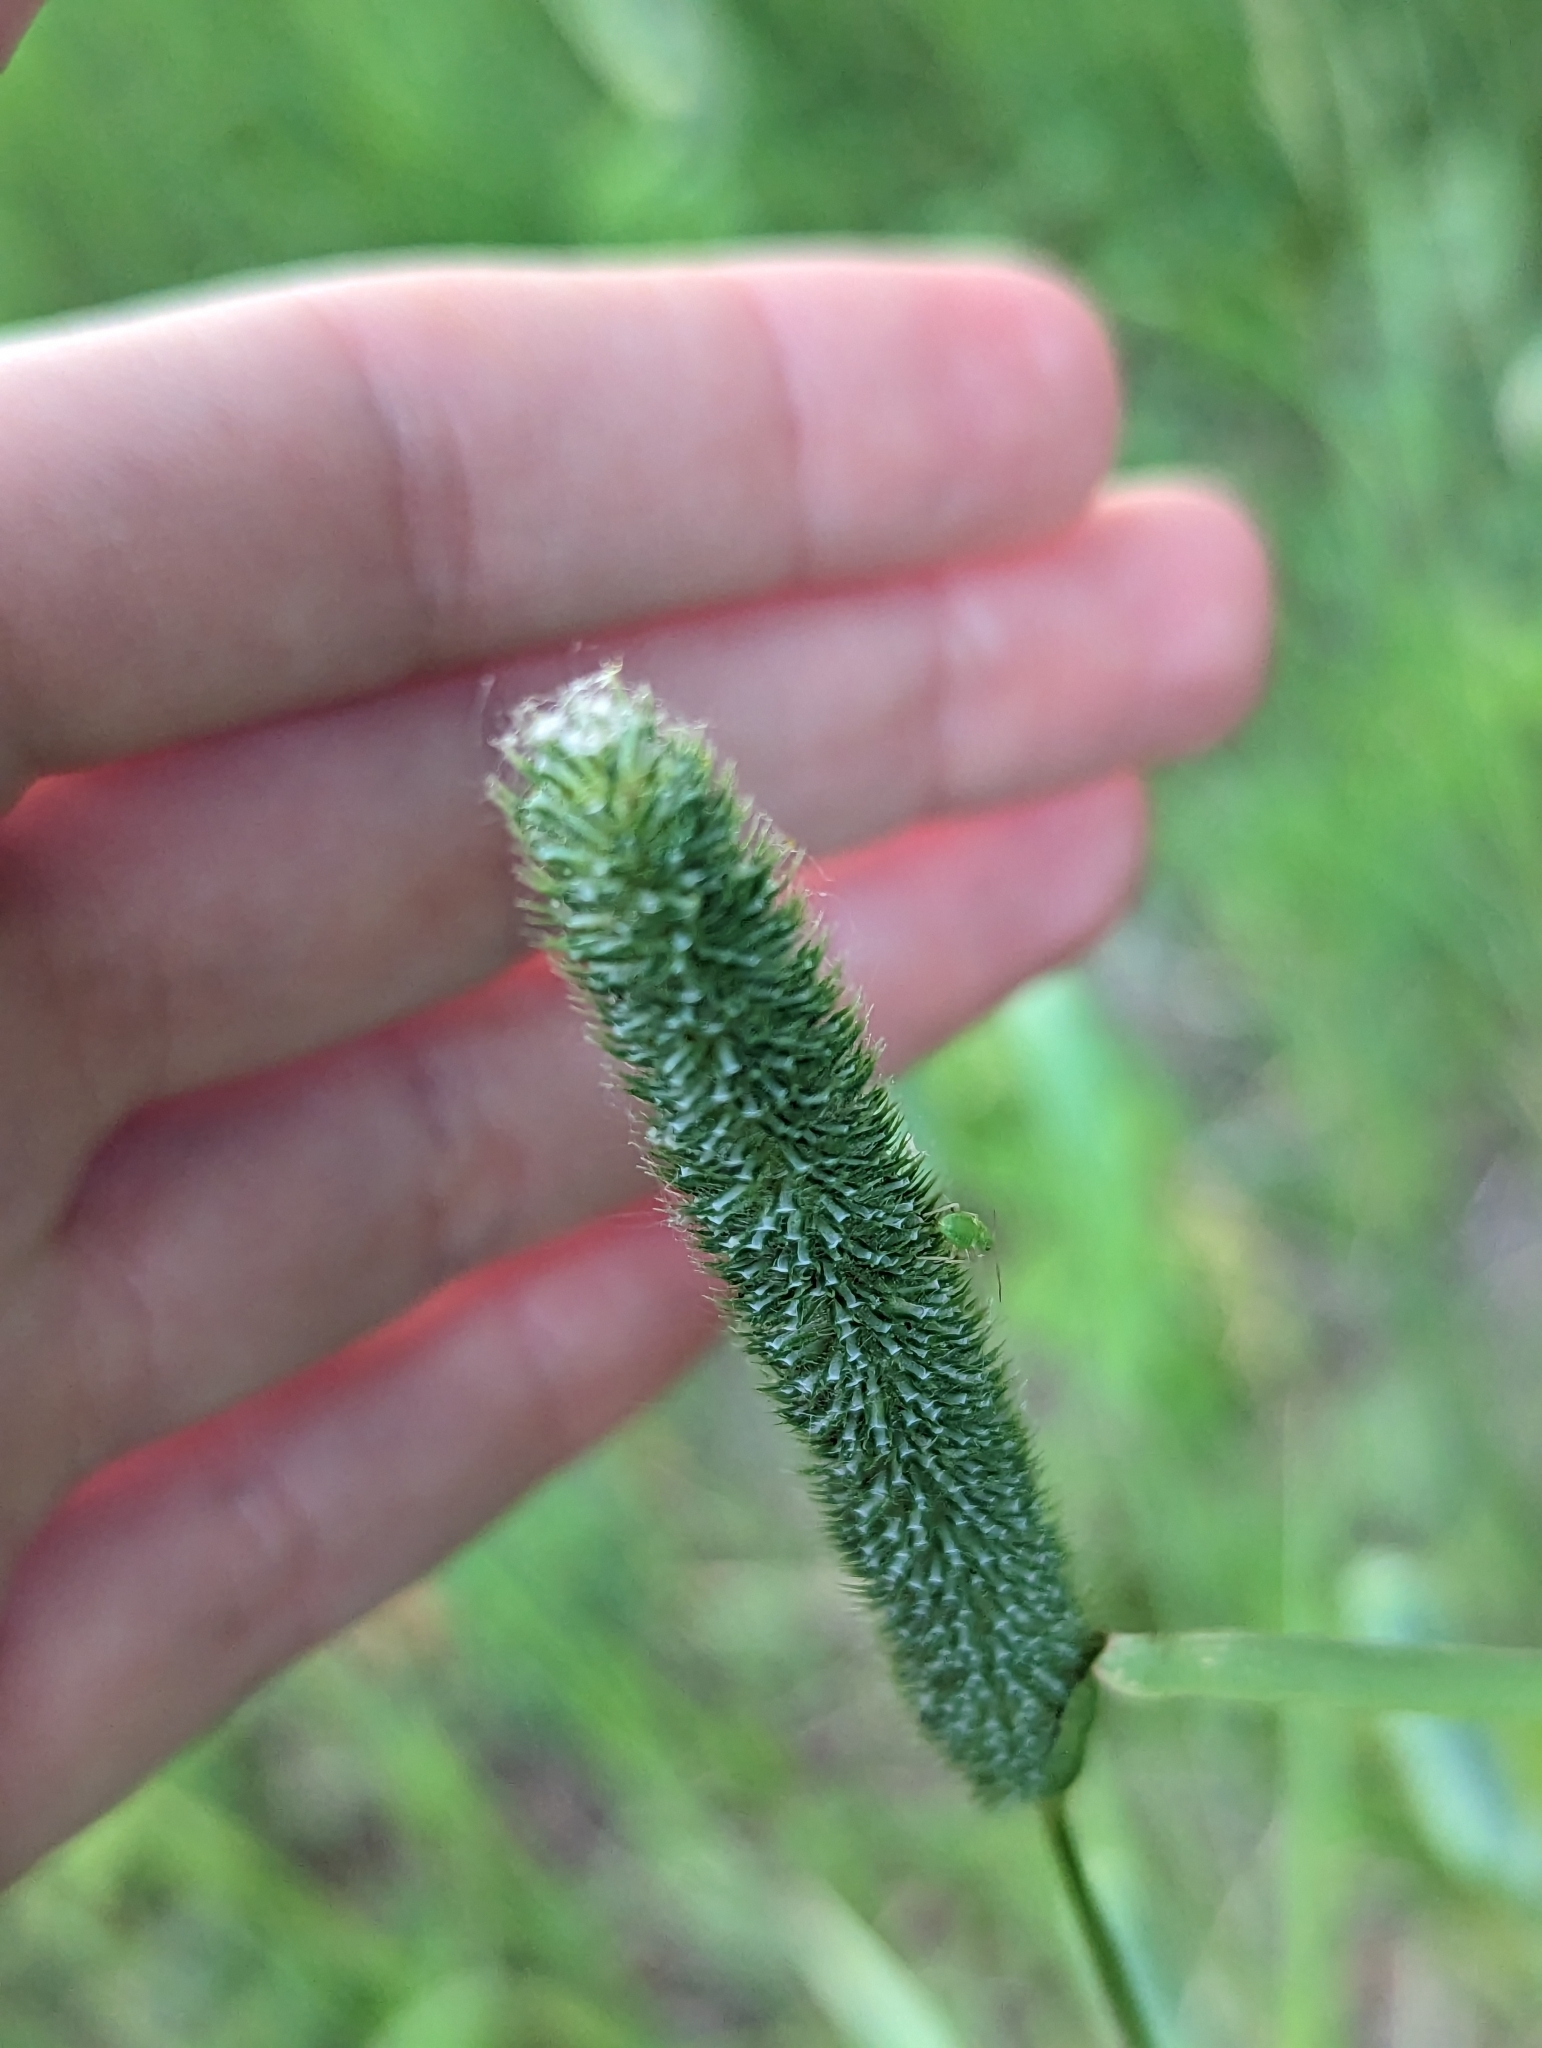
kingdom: Plantae
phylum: Tracheophyta
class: Liliopsida
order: Poales
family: Poaceae
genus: Phleum
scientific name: Phleum pratense
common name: Timothy grass
